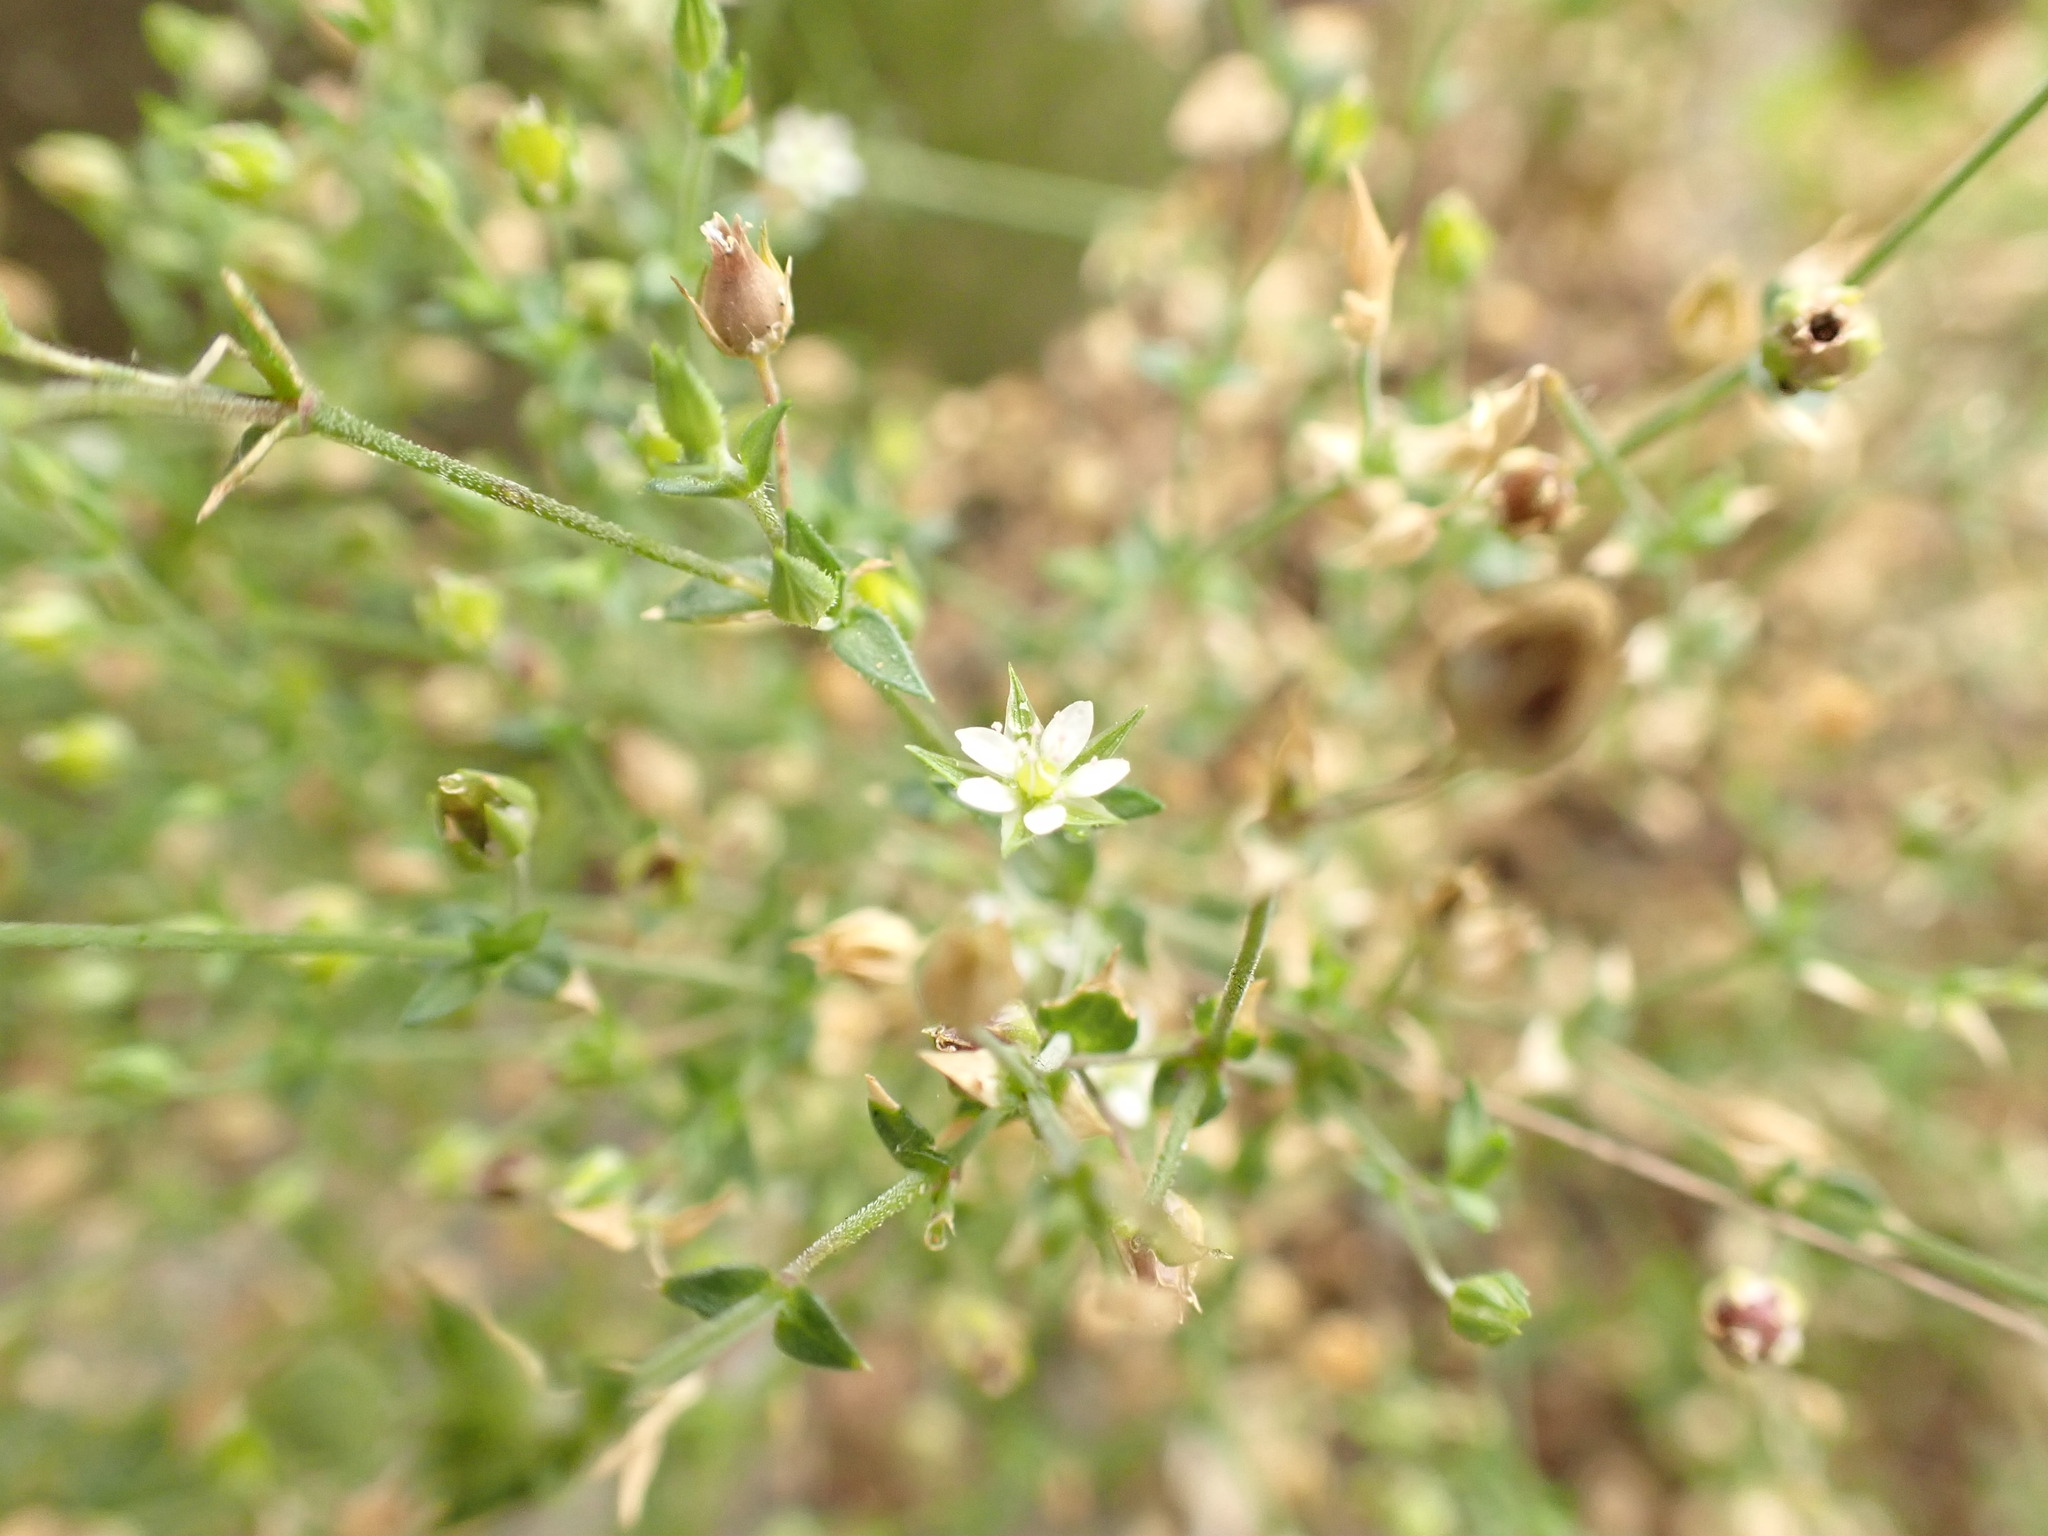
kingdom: Plantae
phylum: Tracheophyta
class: Magnoliopsida
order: Caryophyllales
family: Caryophyllaceae
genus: Arenaria
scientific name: Arenaria serpyllifolia
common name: Thyme-leaved sandwort
